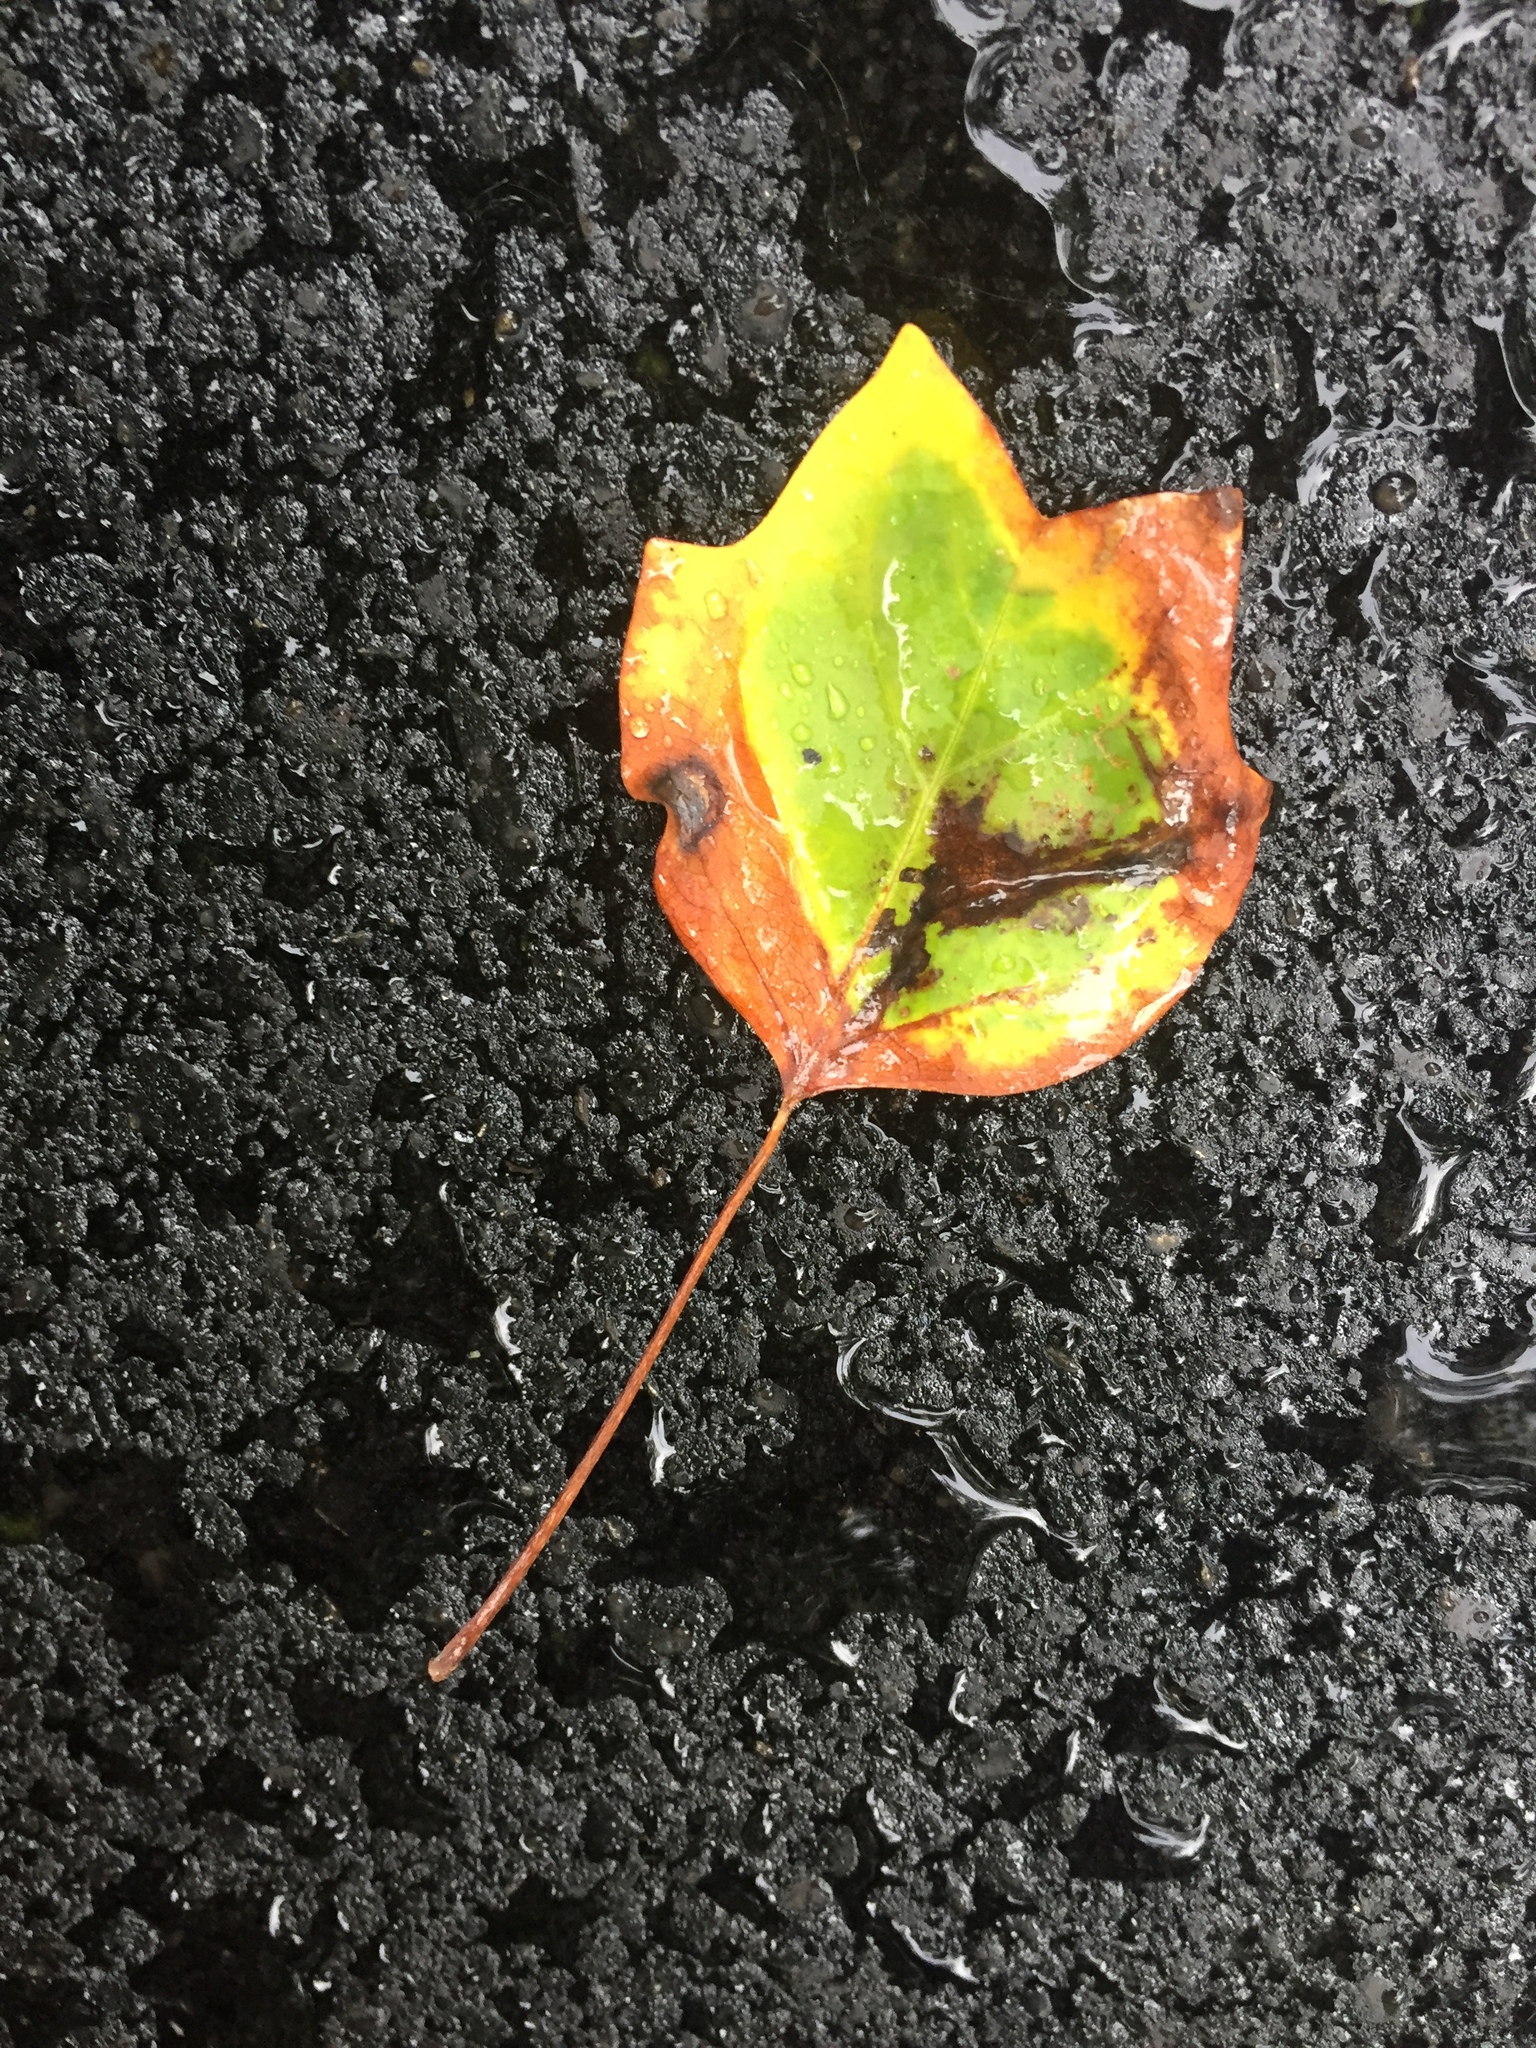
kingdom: Plantae
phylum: Tracheophyta
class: Magnoliopsida
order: Magnoliales
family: Magnoliaceae
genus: Liriodendron
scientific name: Liriodendron tulipifera
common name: Tulip tree
